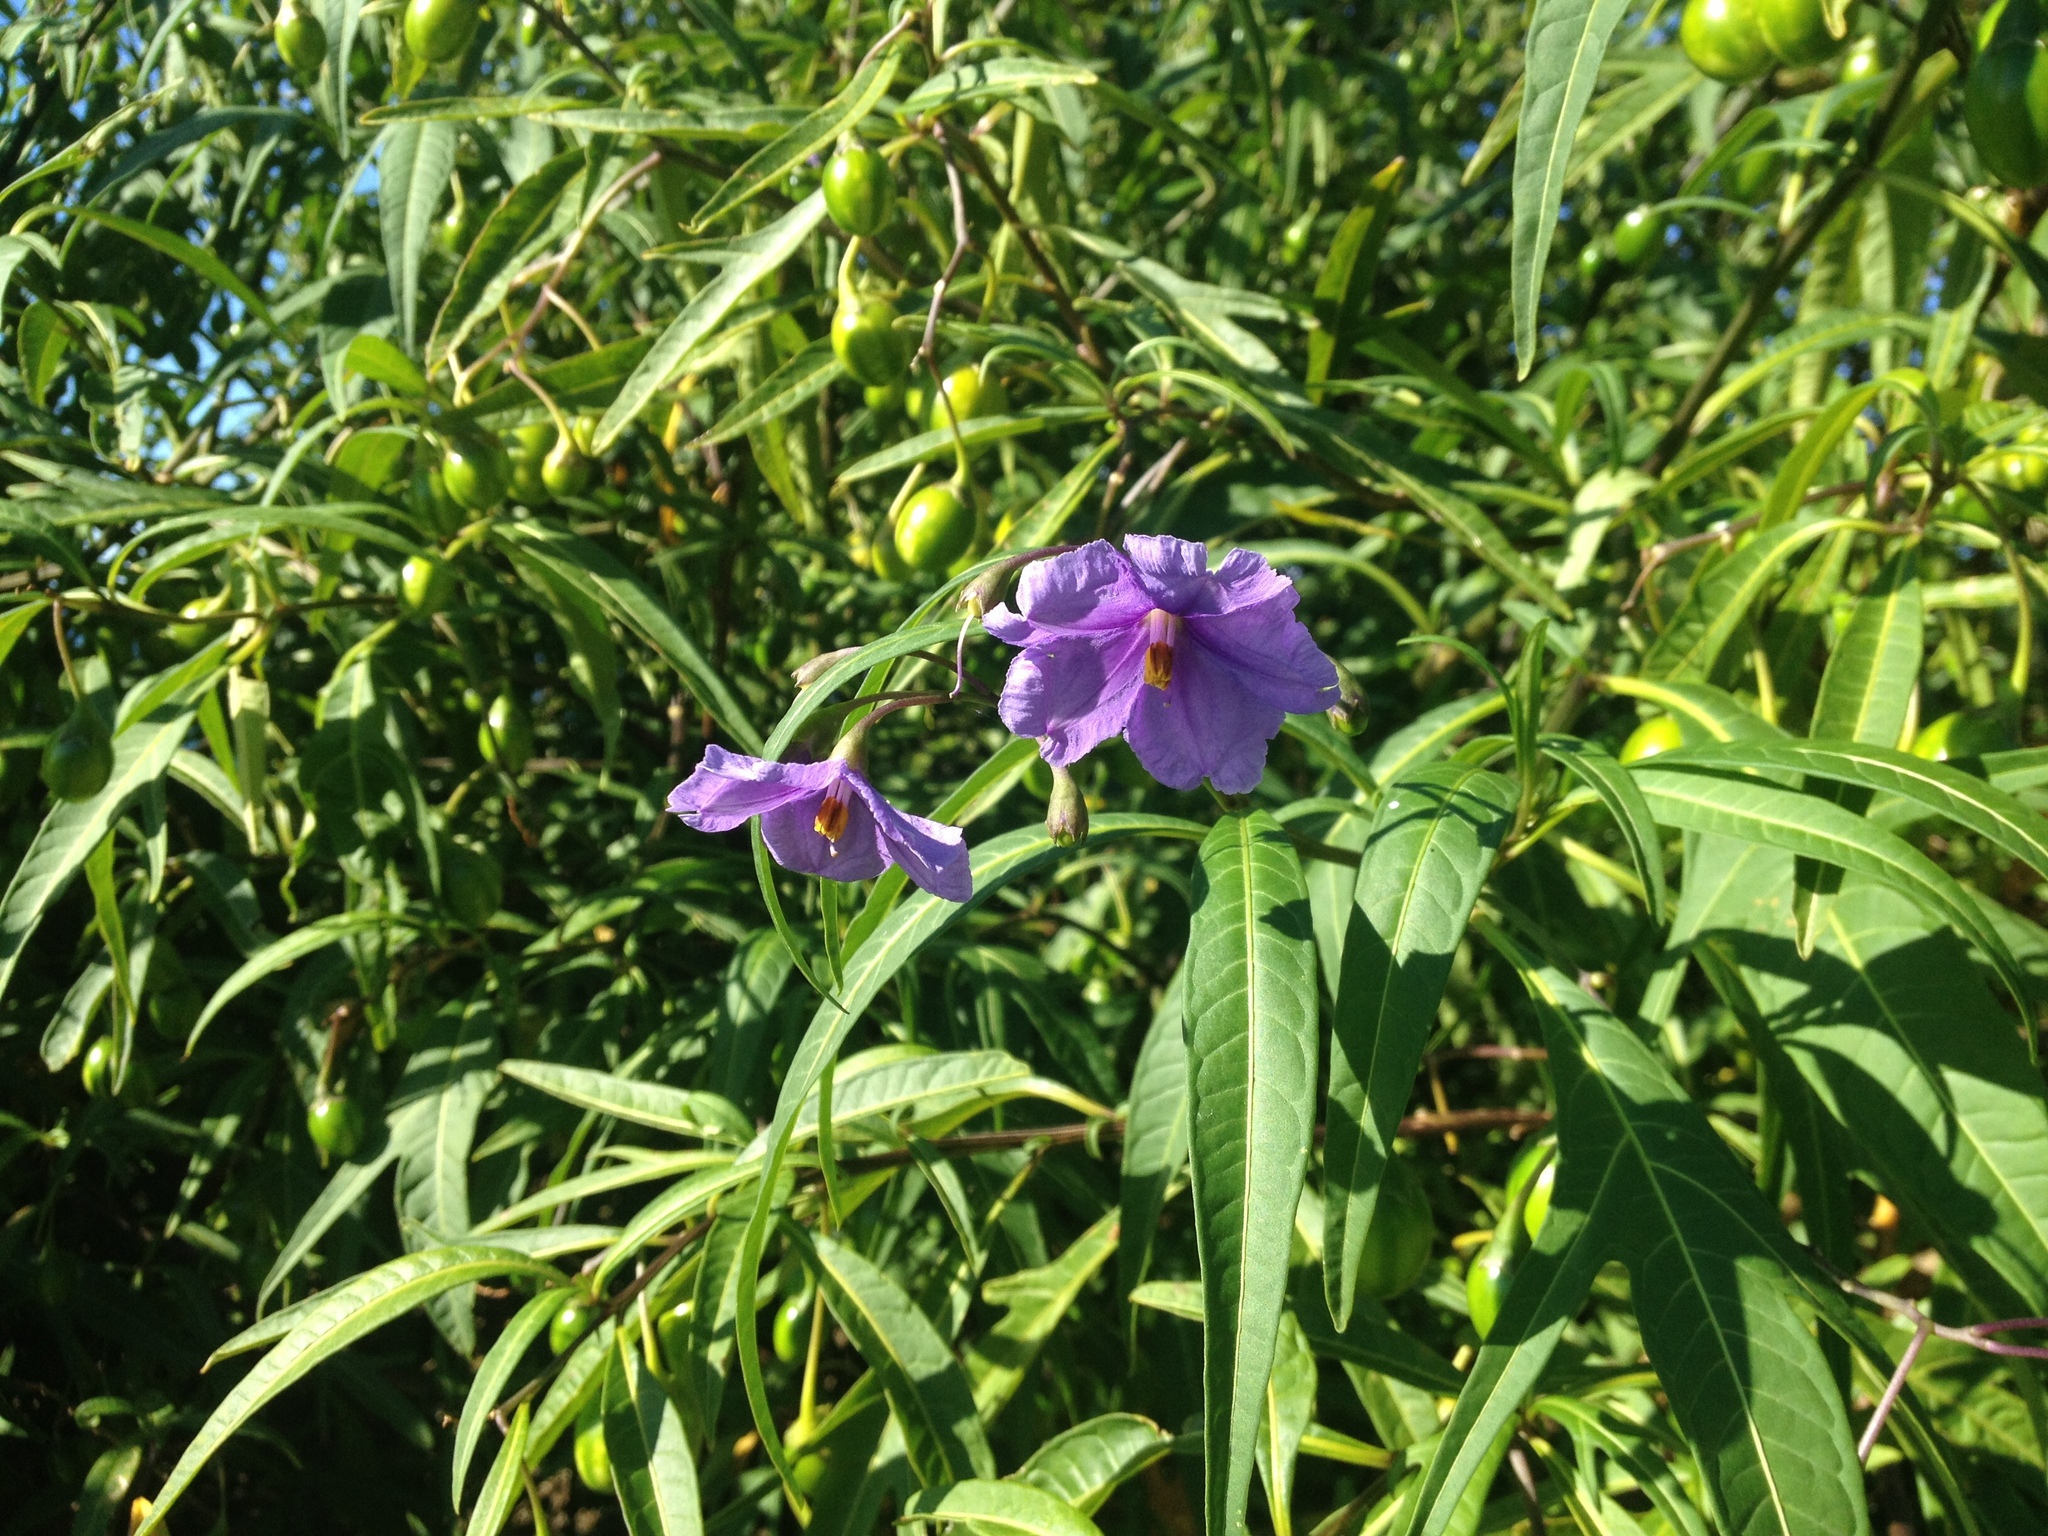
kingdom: Plantae
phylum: Tracheophyta
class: Magnoliopsida
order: Solanales
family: Solanaceae
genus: Solanum
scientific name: Solanum laciniatum
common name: Kangaroo-apple
